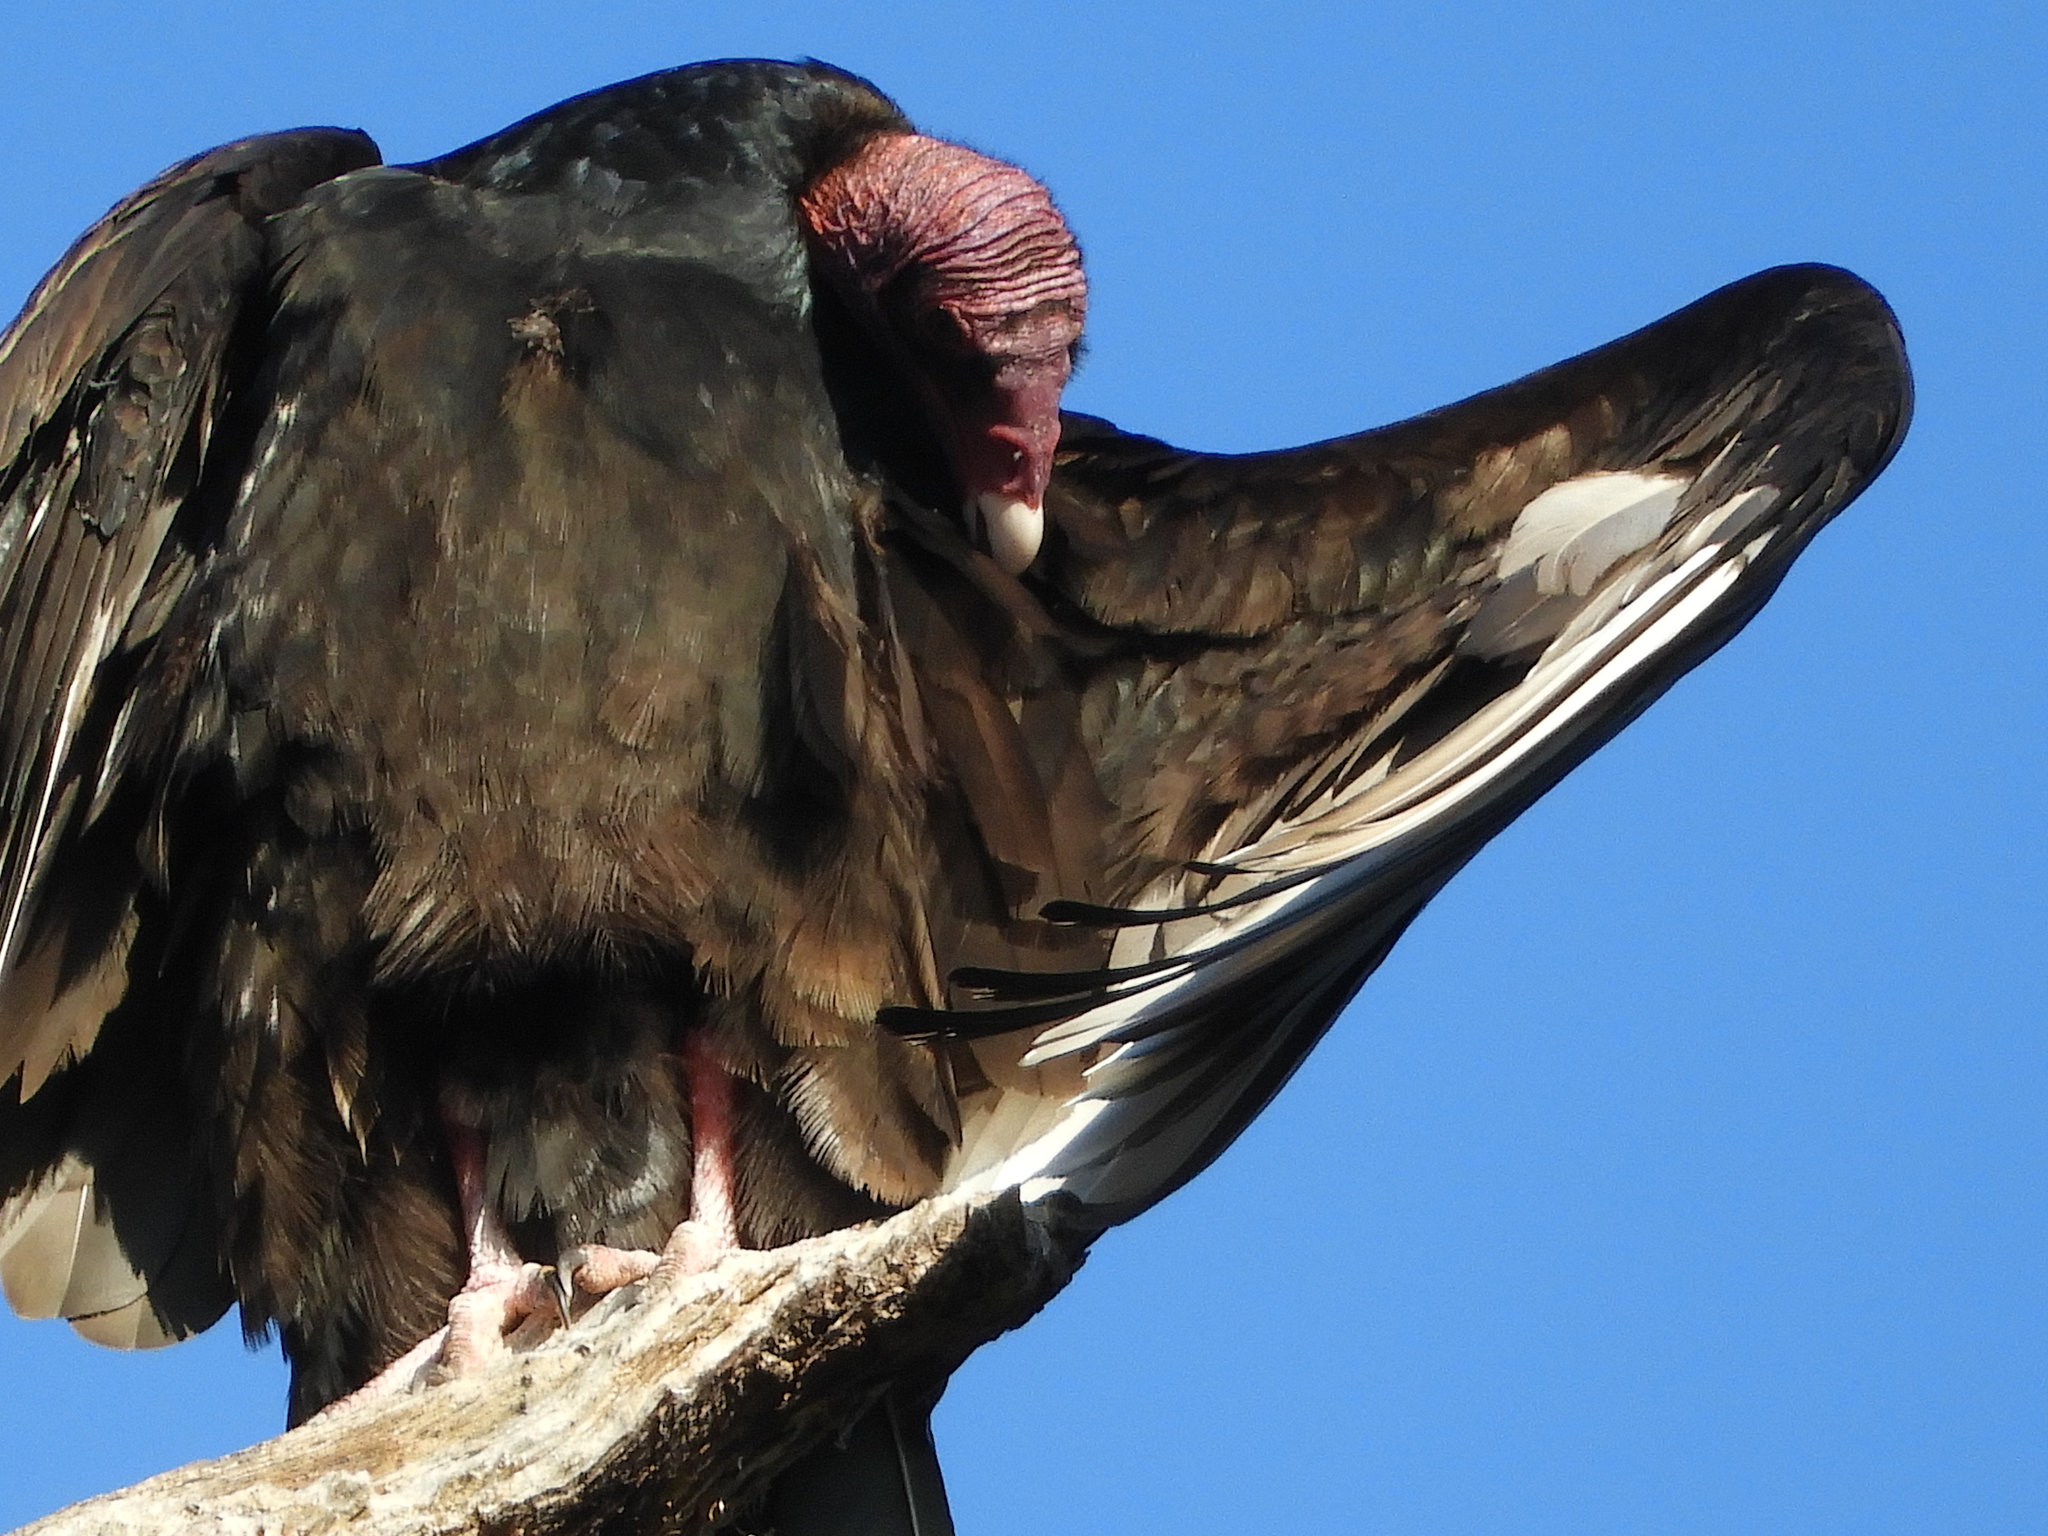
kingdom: Animalia
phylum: Chordata
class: Aves
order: Accipitriformes
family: Cathartidae
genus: Cathartes
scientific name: Cathartes aura
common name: Turkey vulture
